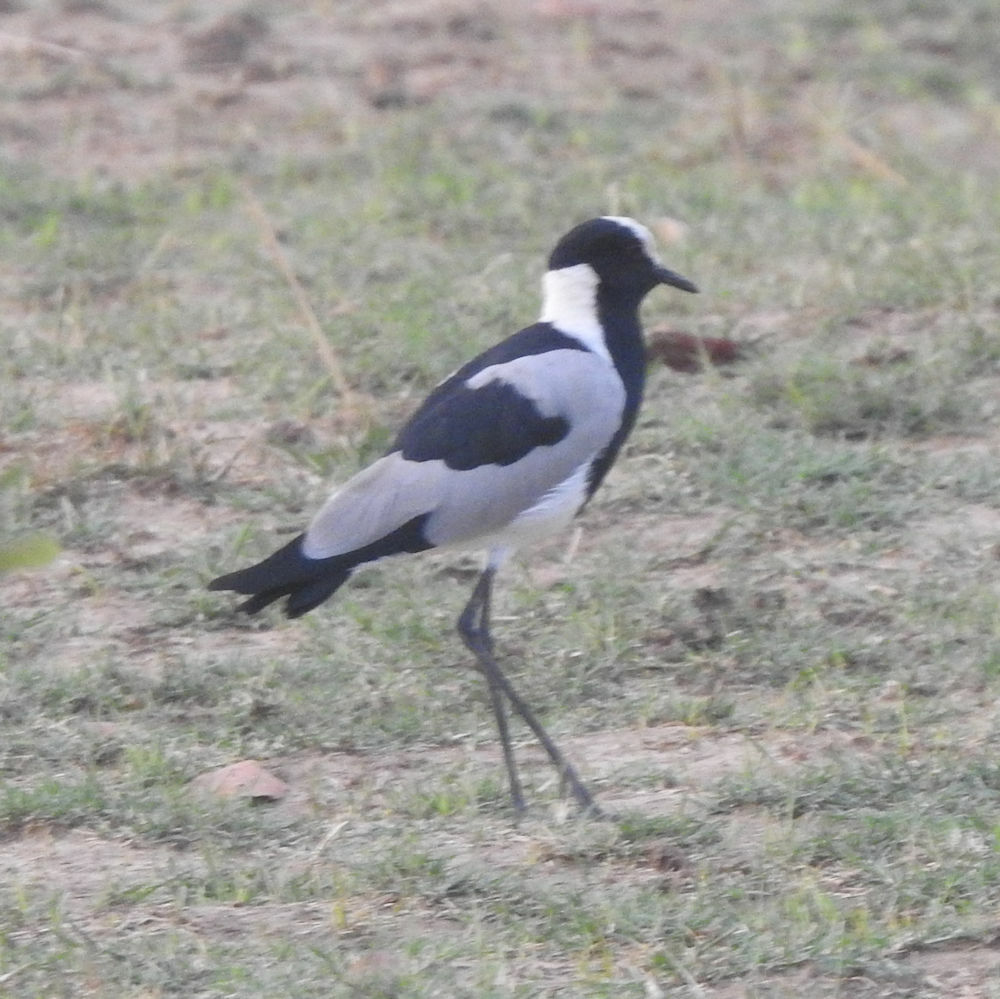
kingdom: Animalia
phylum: Chordata
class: Aves
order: Charadriiformes
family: Charadriidae
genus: Vanellus
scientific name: Vanellus armatus
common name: Blacksmith lapwing
